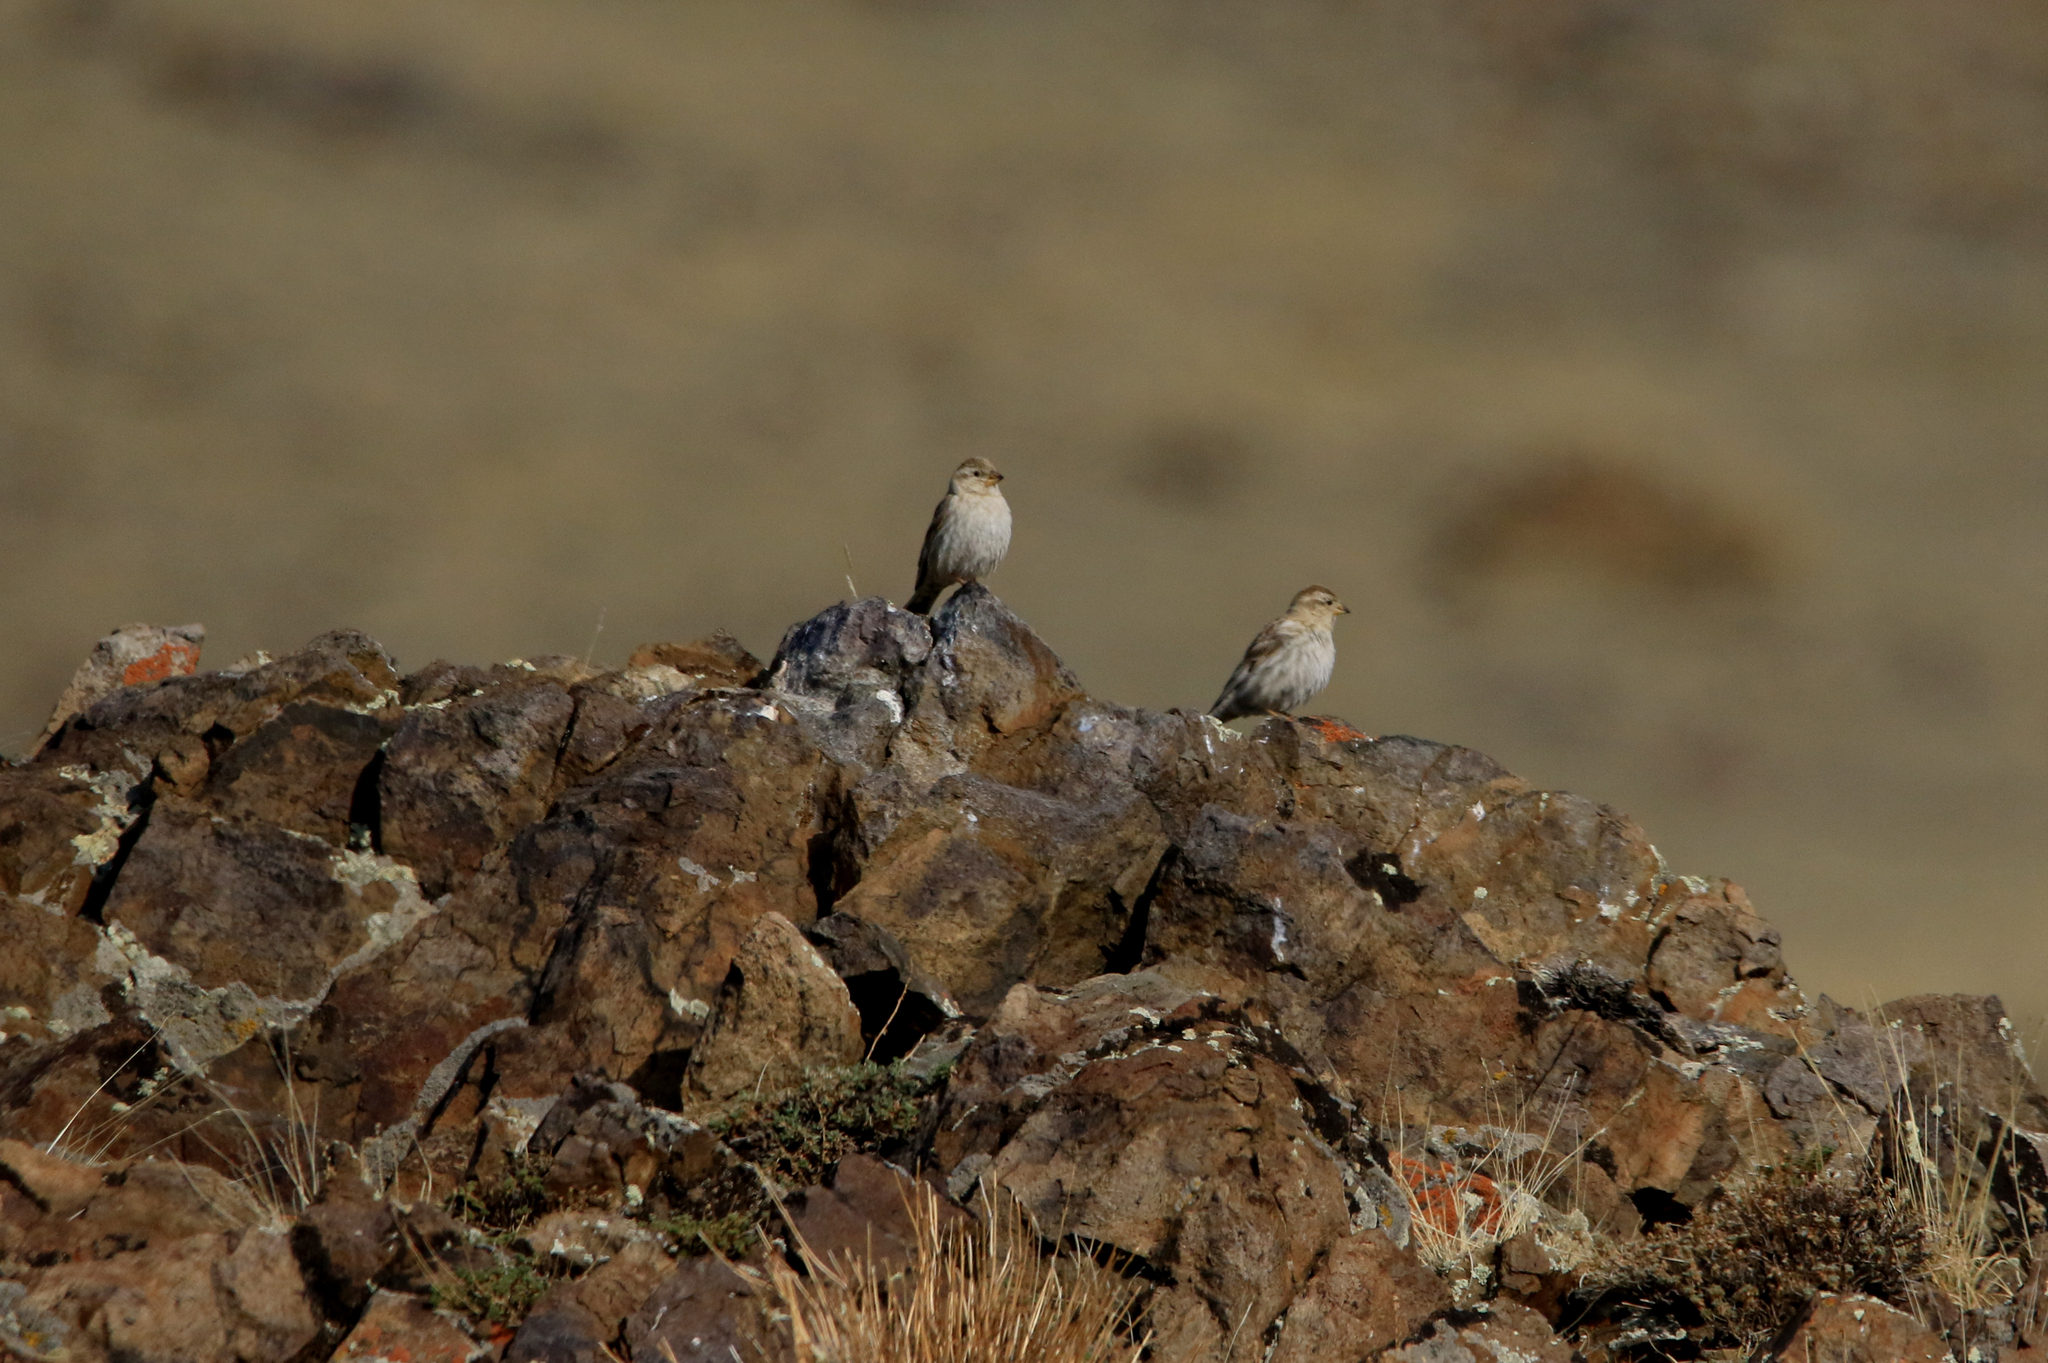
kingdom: Animalia
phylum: Chordata
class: Aves
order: Passeriformes
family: Passeridae
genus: Petronia
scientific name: Petronia petronia
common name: Rock sparrow
